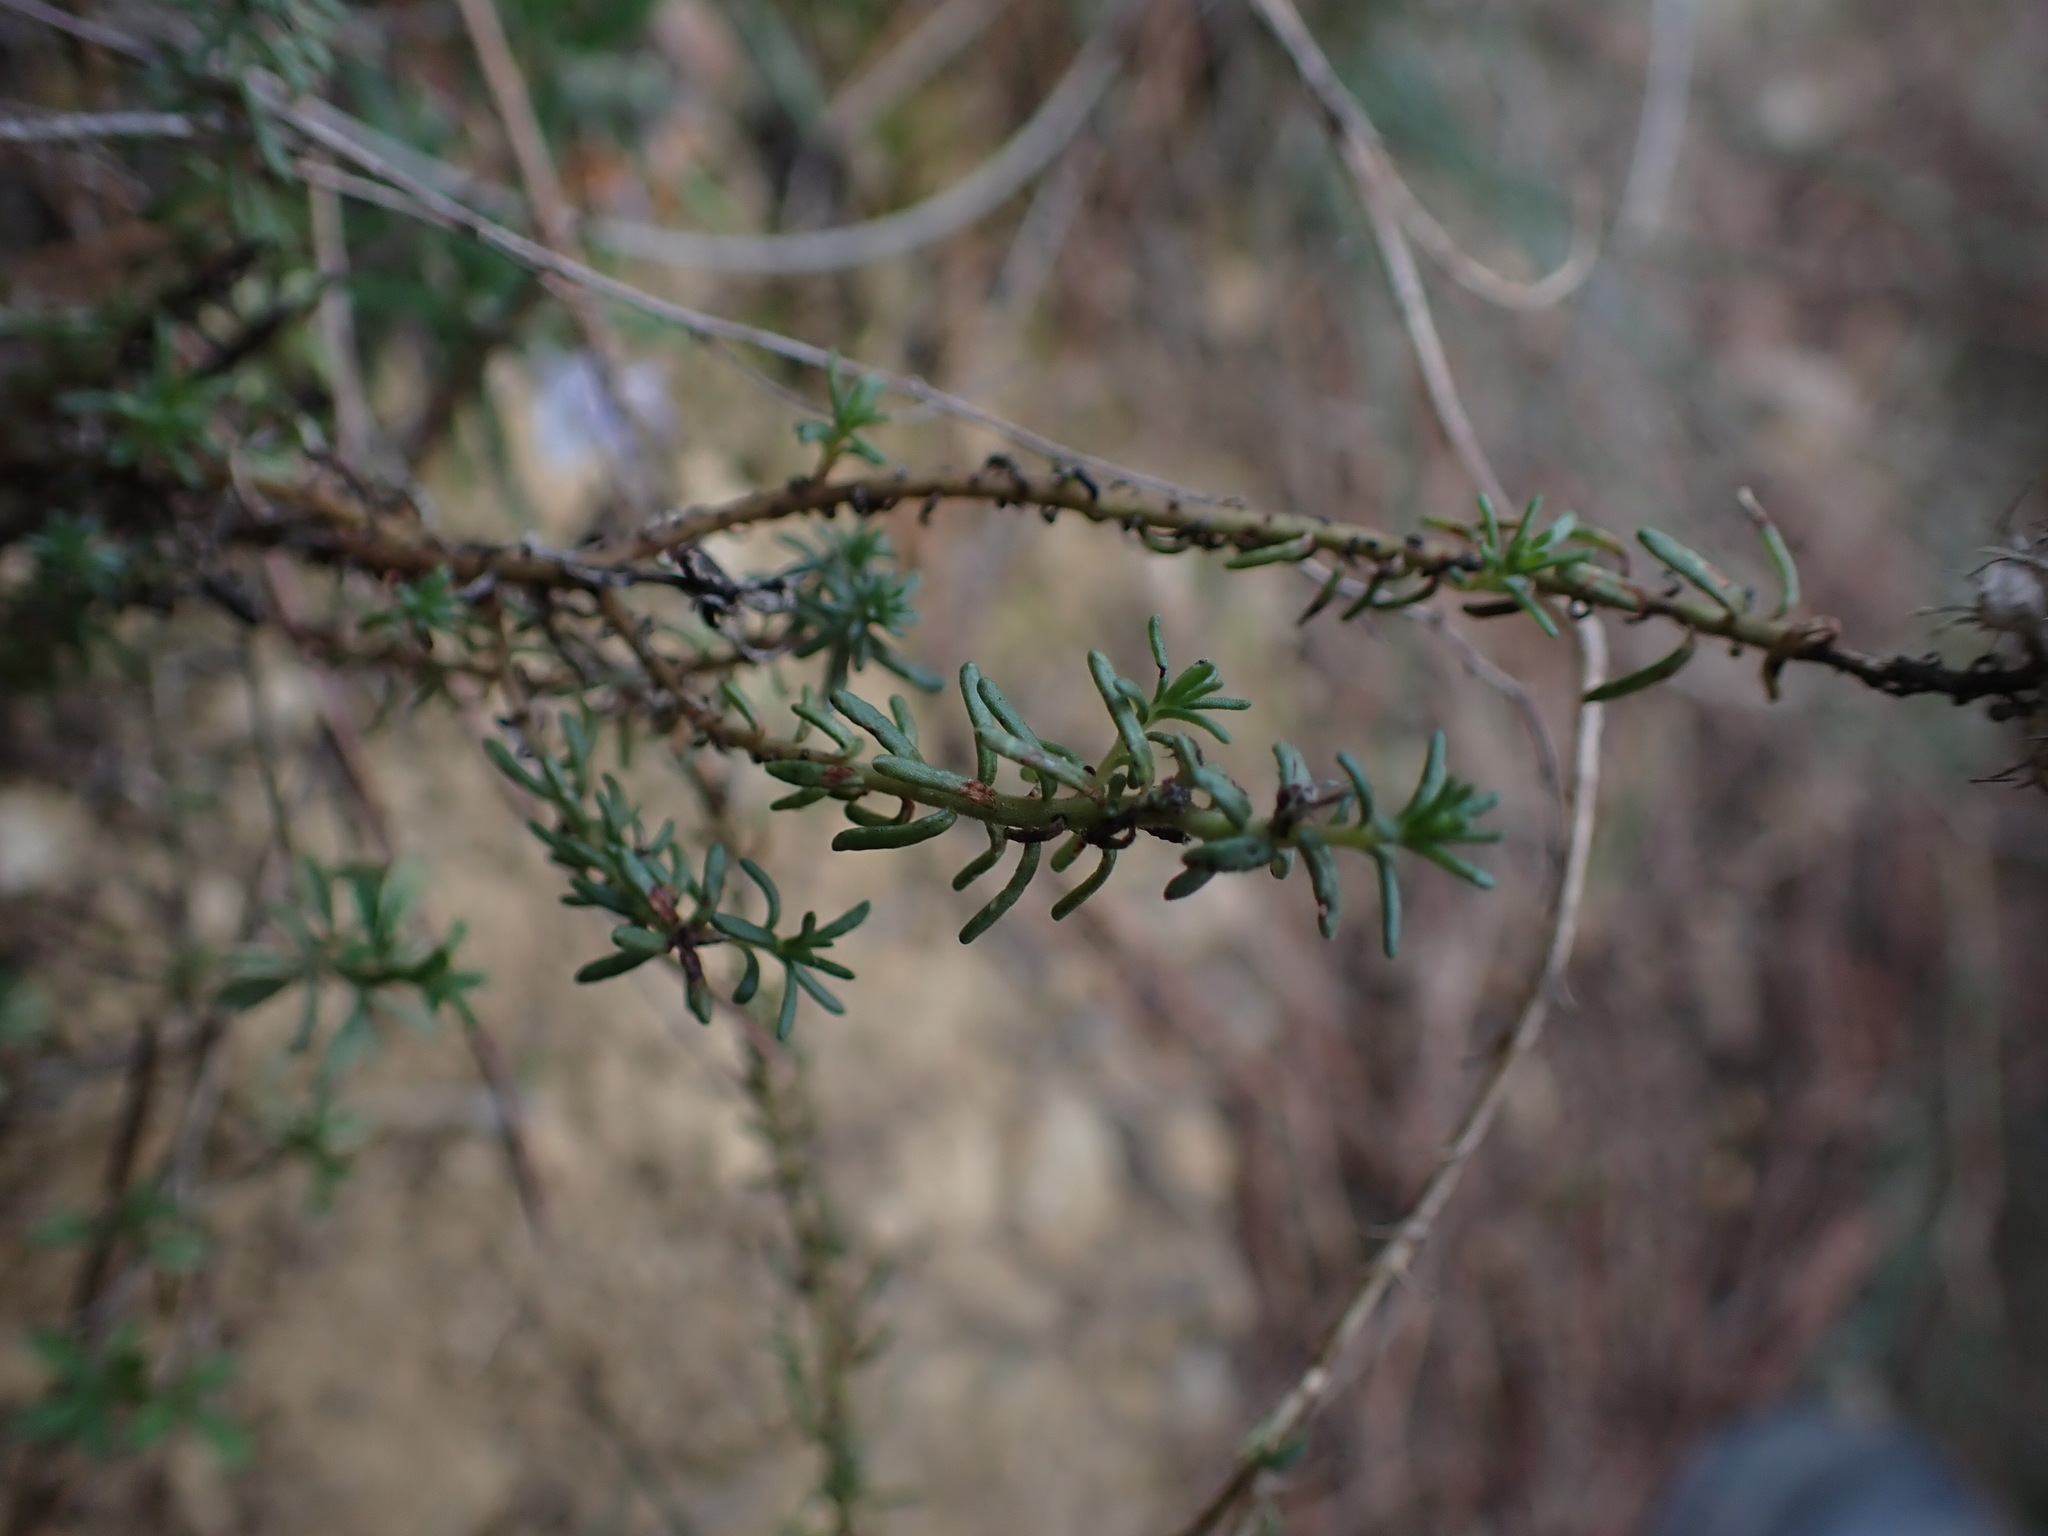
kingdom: Plantae
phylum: Tracheophyta
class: Magnoliopsida
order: Ericales
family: Primulaceae
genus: Coris
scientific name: Coris monspeliensis
